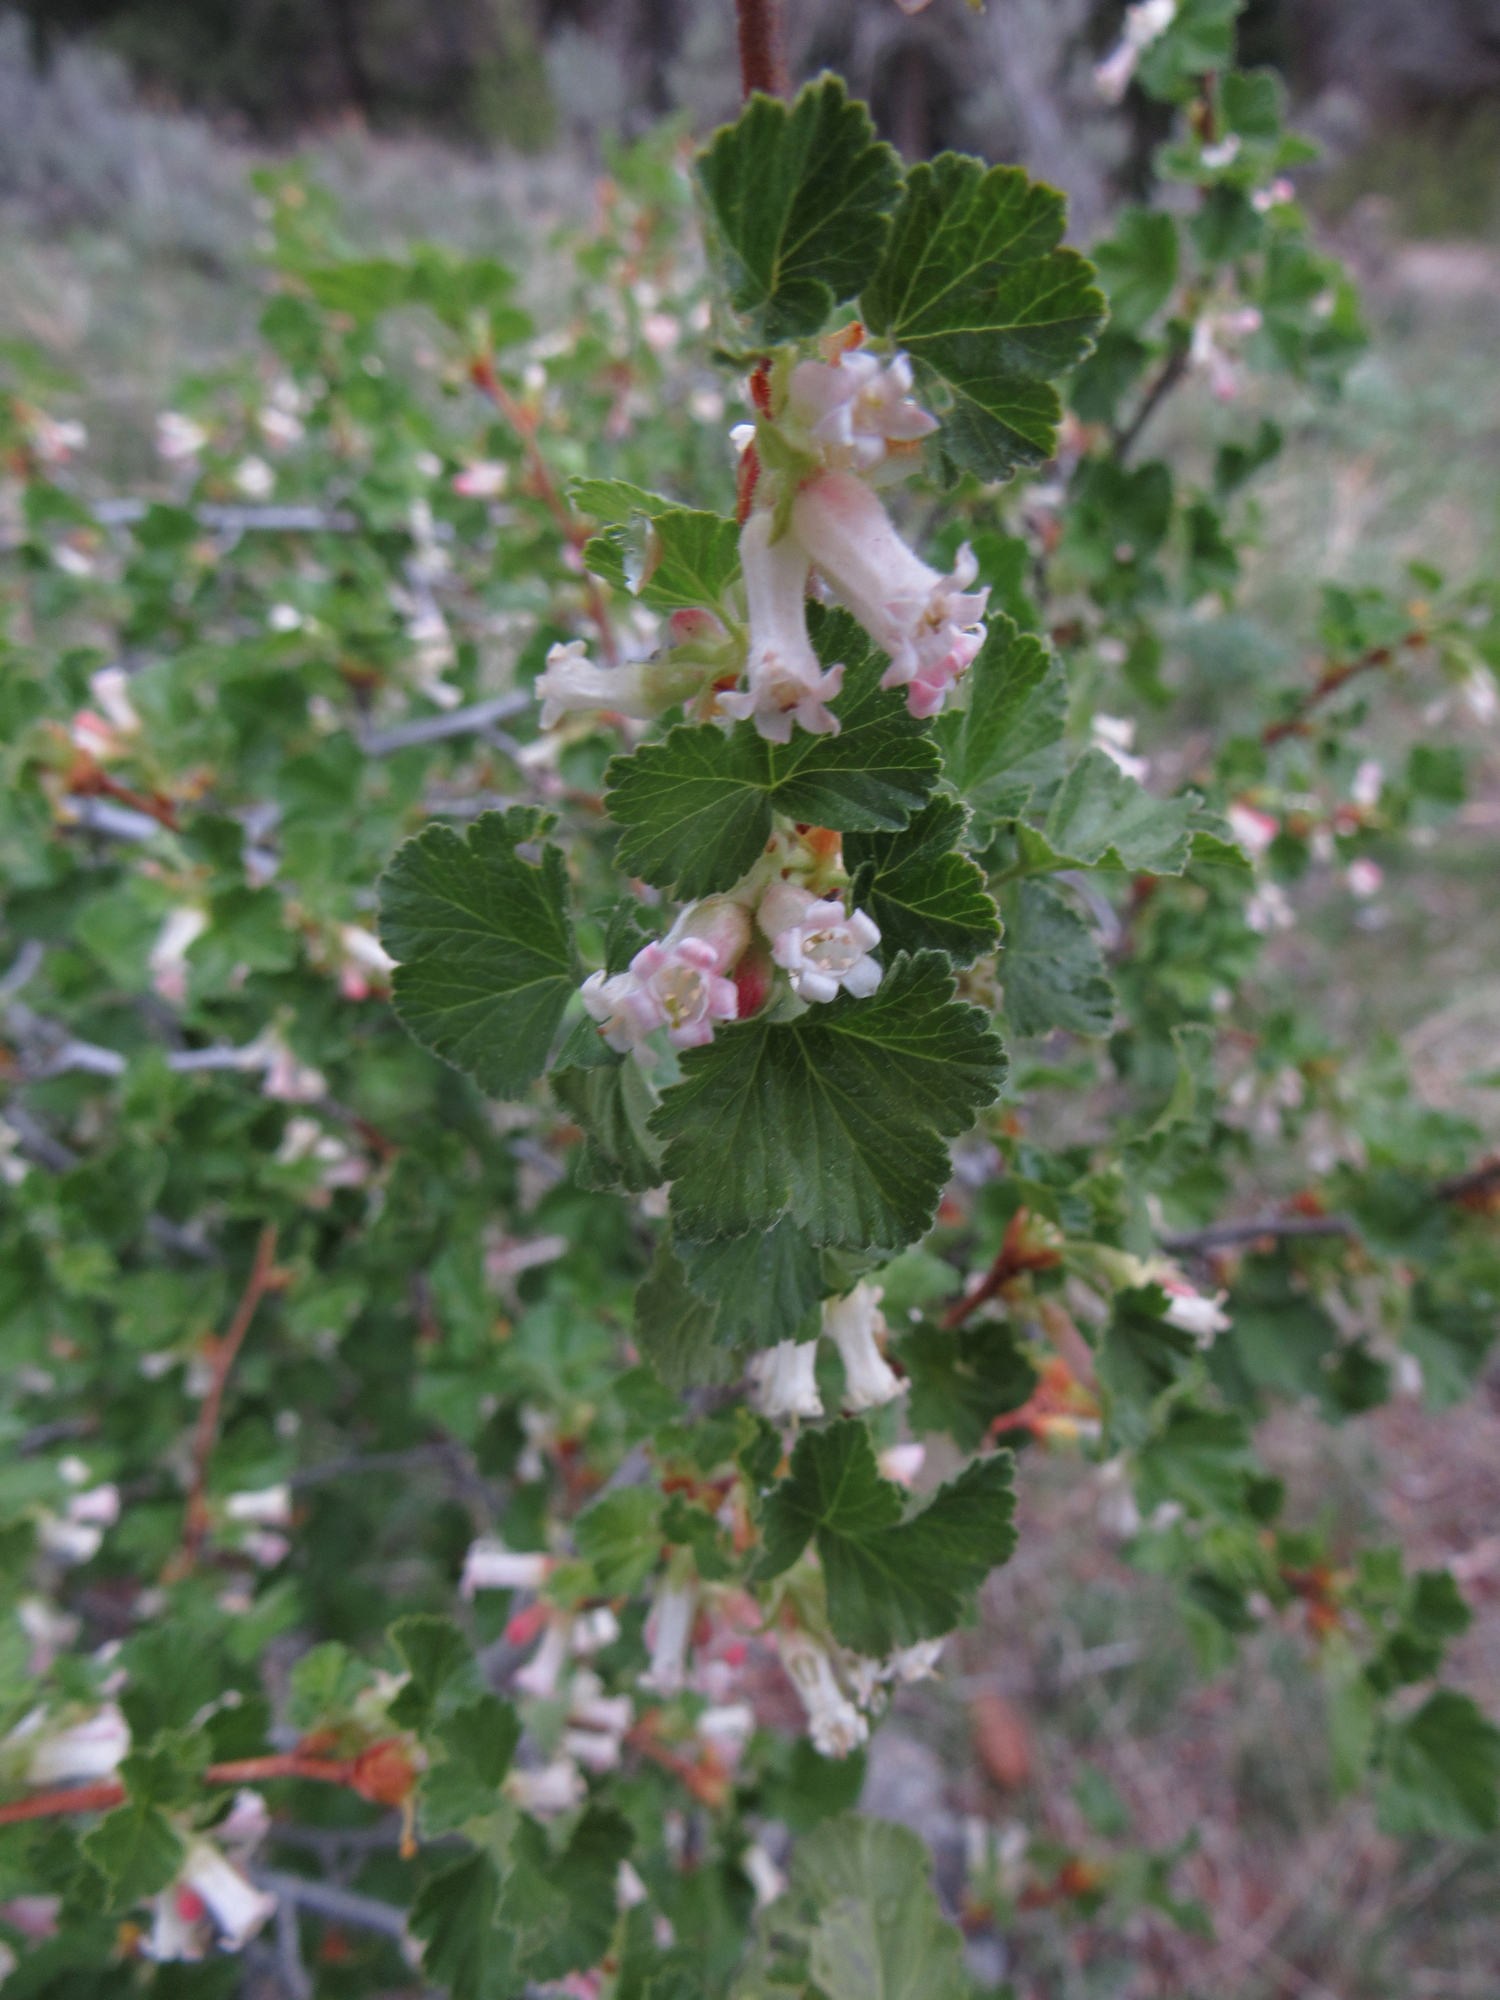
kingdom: Plantae
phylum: Tracheophyta
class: Magnoliopsida
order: Saxifragales
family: Grossulariaceae
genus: Ribes
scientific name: Ribes cereum
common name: Wax currant
